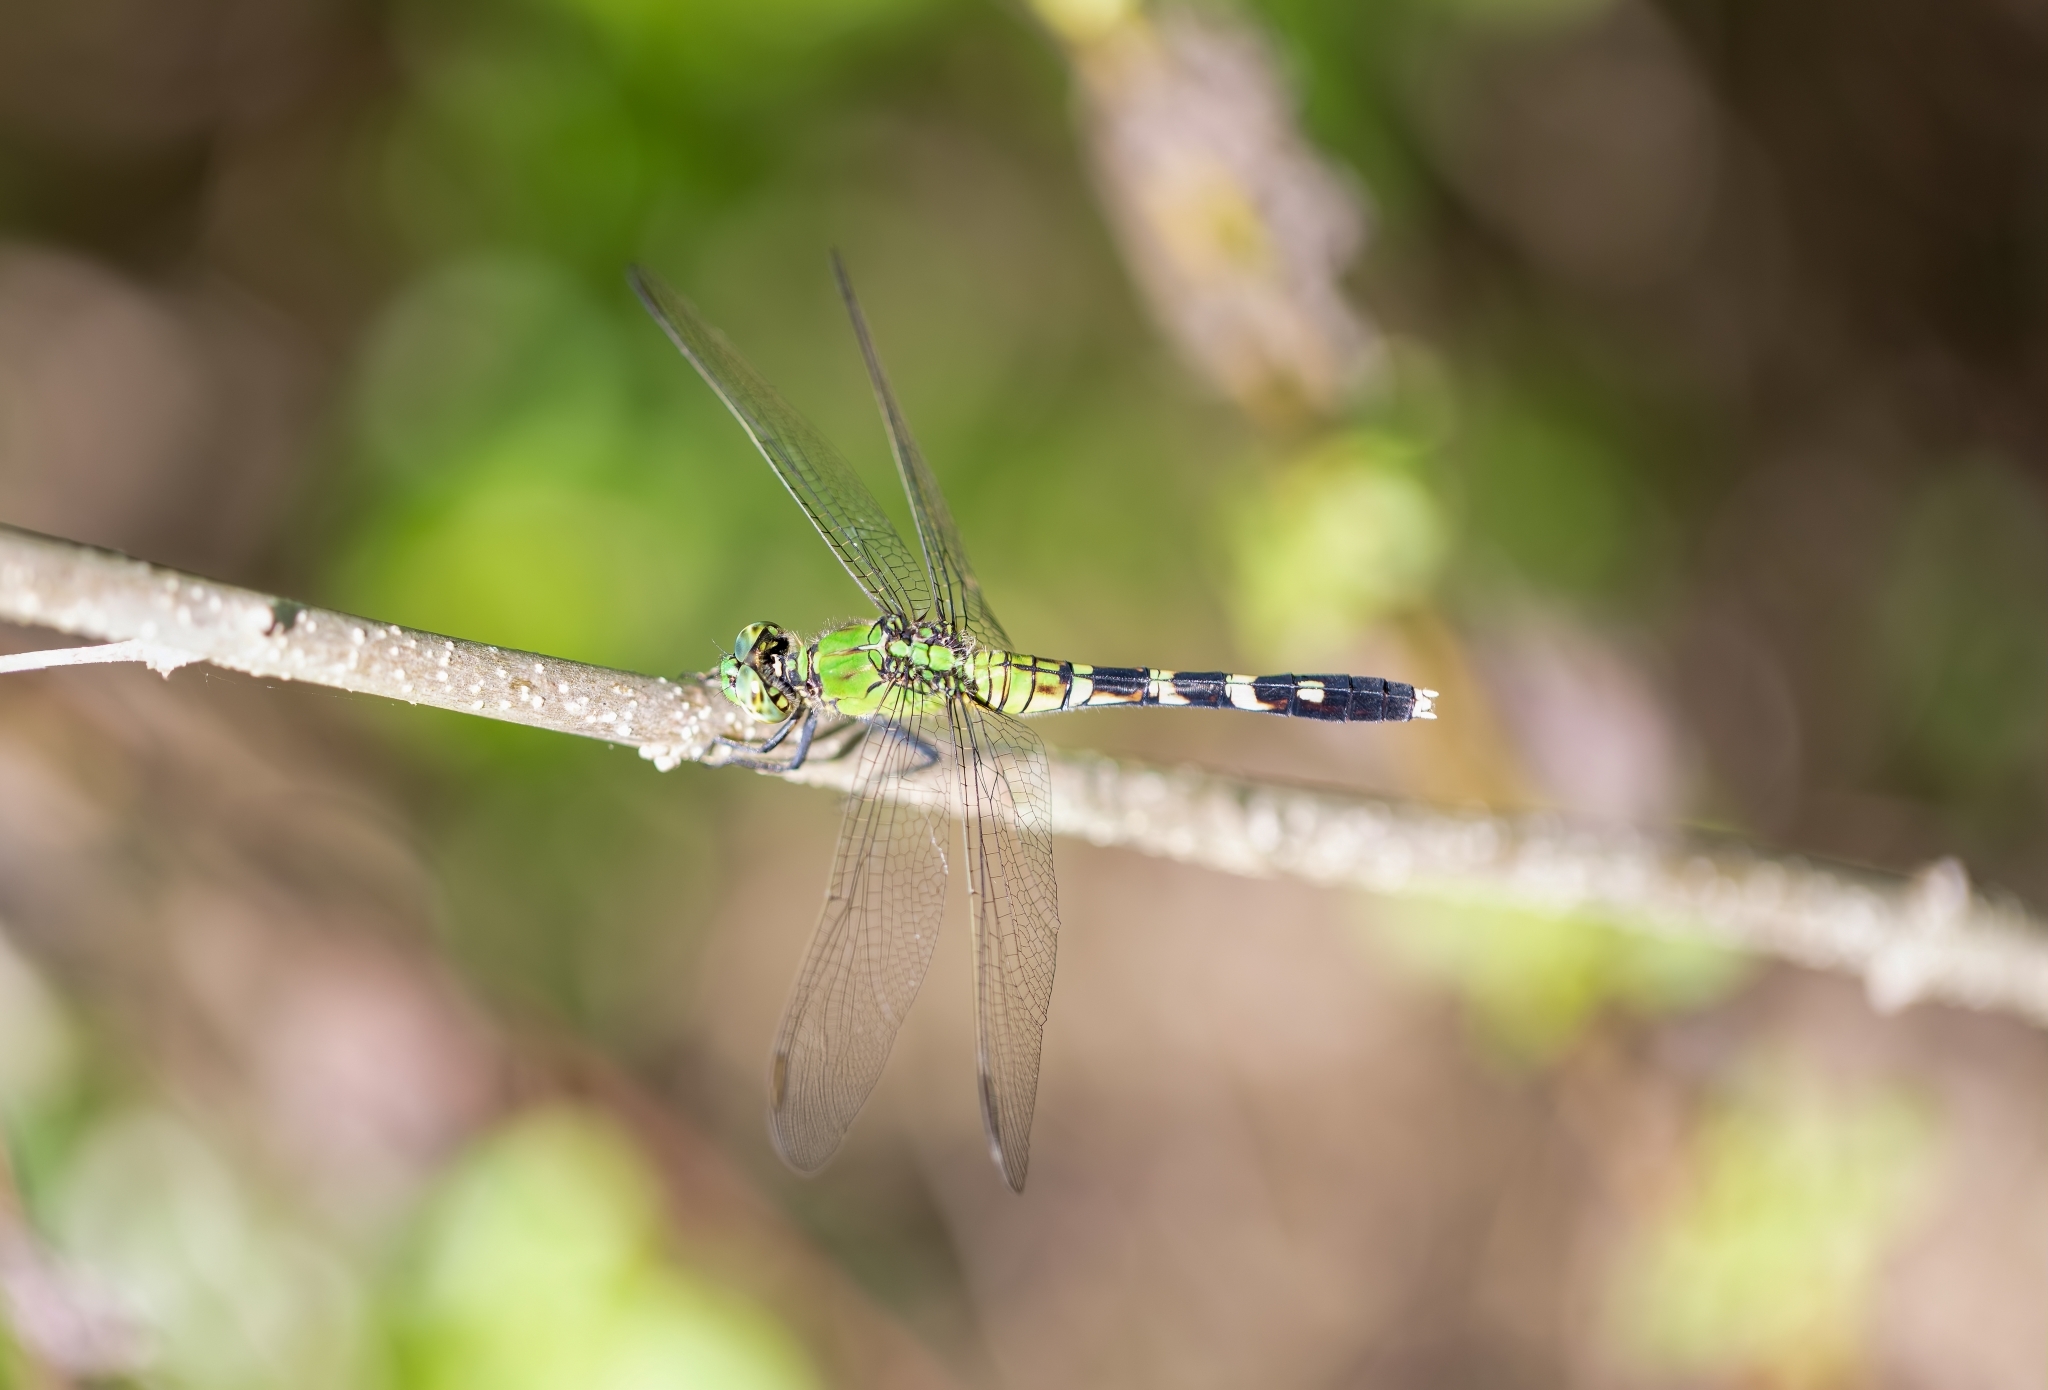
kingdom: Animalia
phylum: Arthropoda
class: Insecta
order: Odonata
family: Libellulidae
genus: Erythemis
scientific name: Erythemis simplicicollis
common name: Eastern pondhawk
